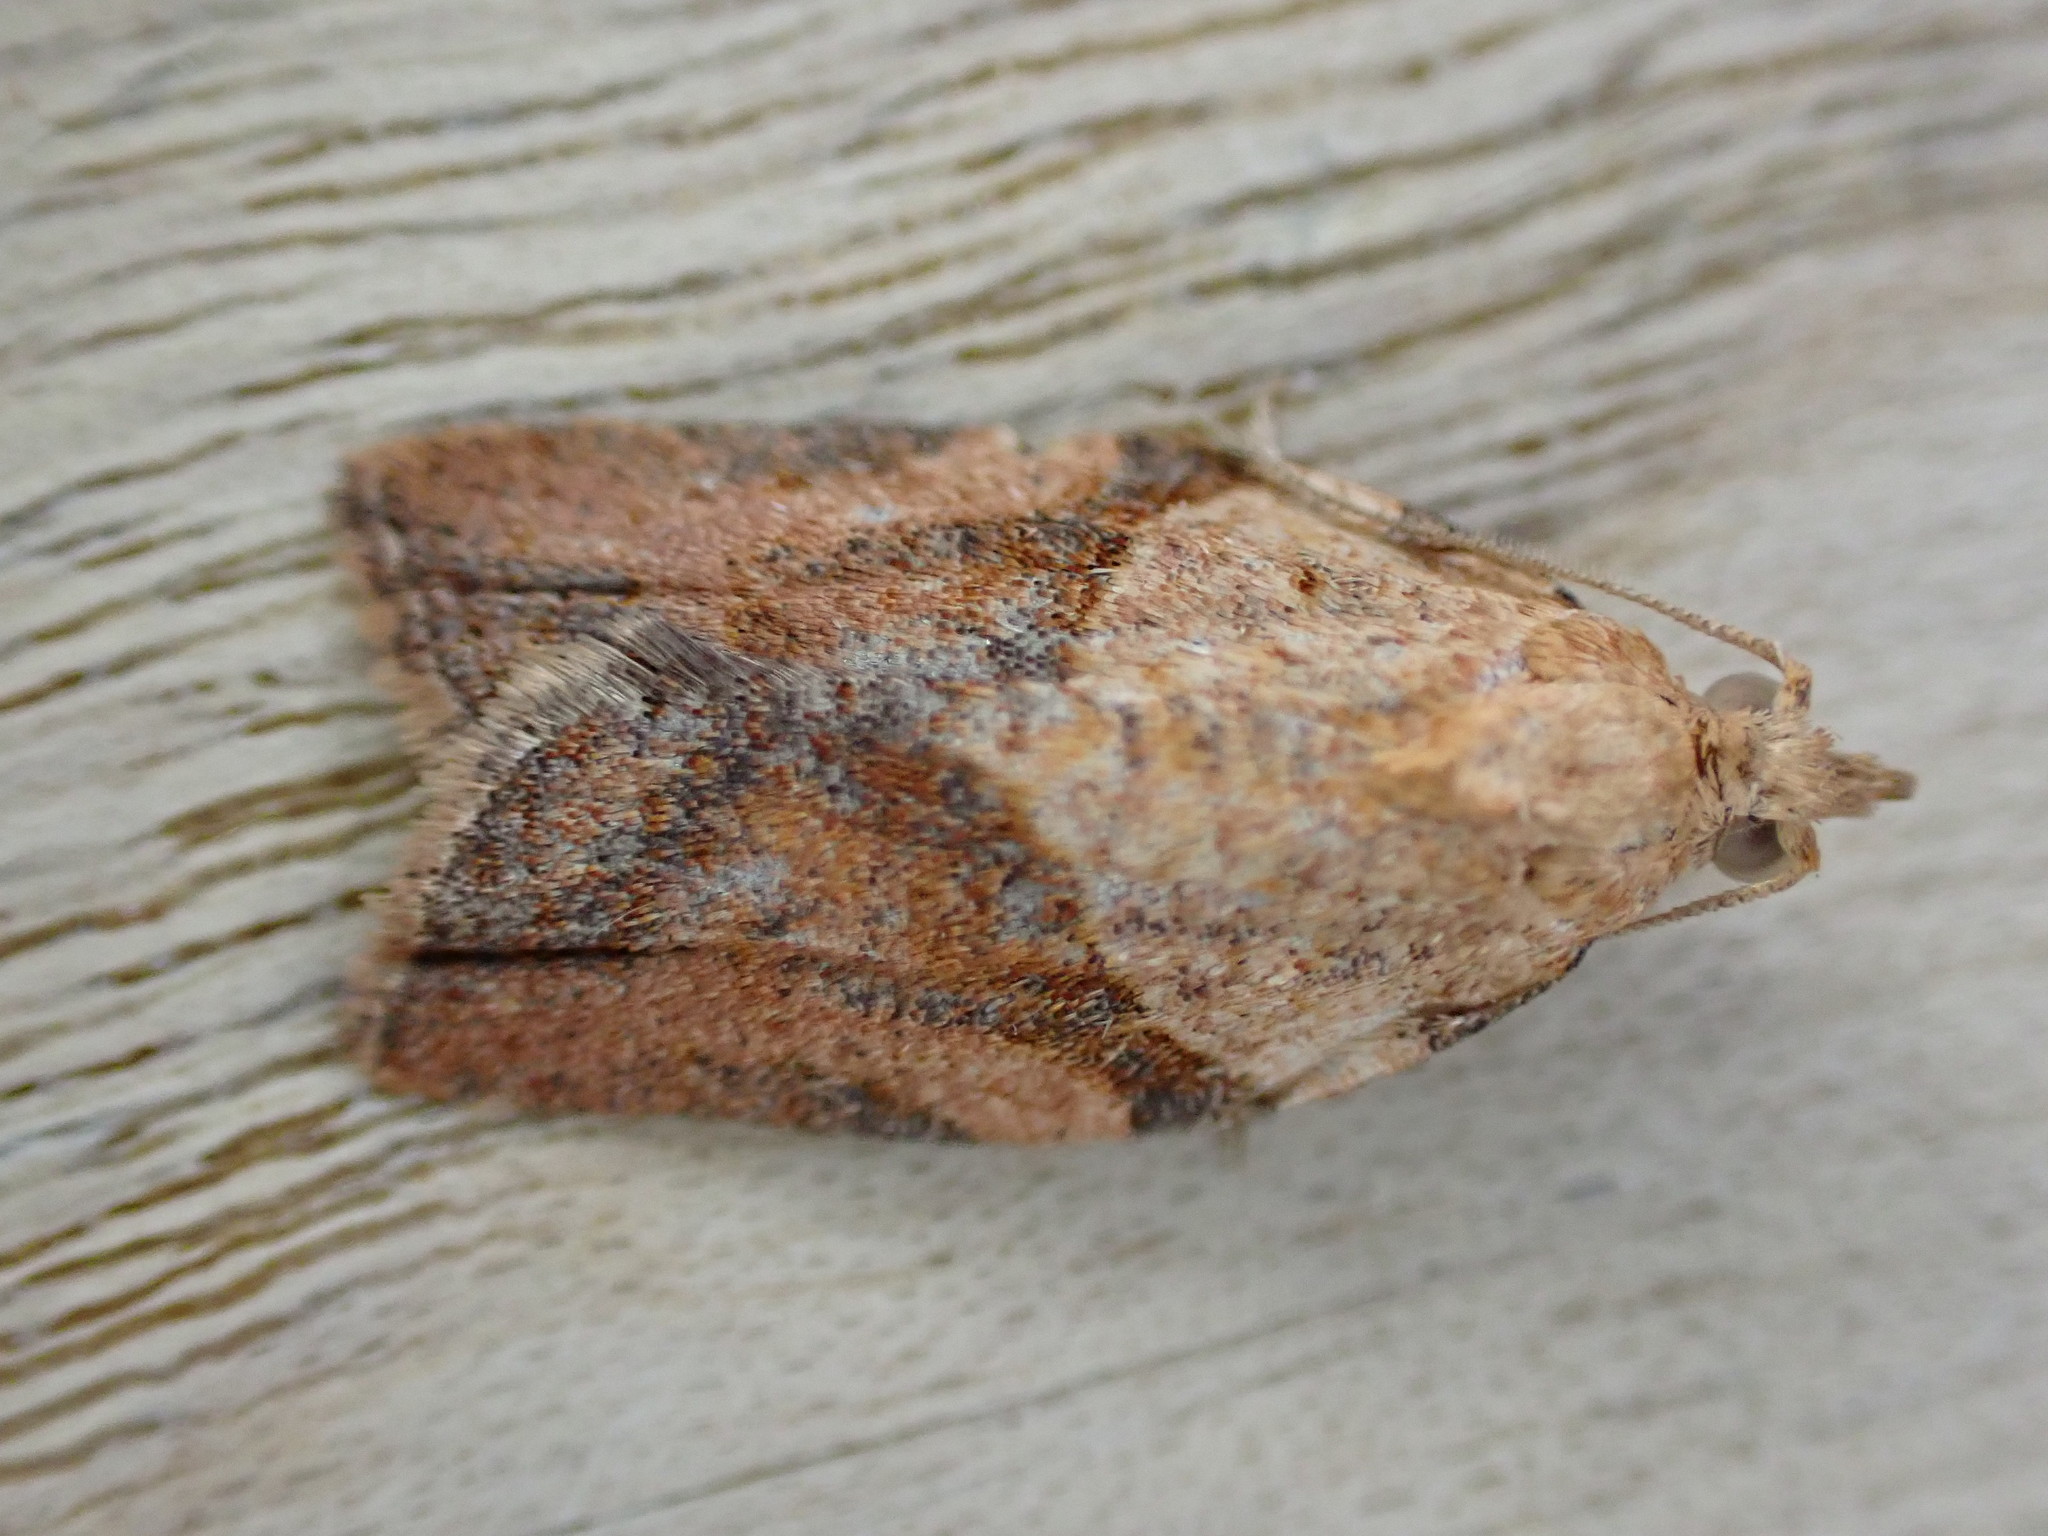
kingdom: Animalia
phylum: Arthropoda
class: Insecta
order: Lepidoptera
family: Tortricidae
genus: Epiphyas
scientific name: Epiphyas postvittana
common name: Light brown apple moth
